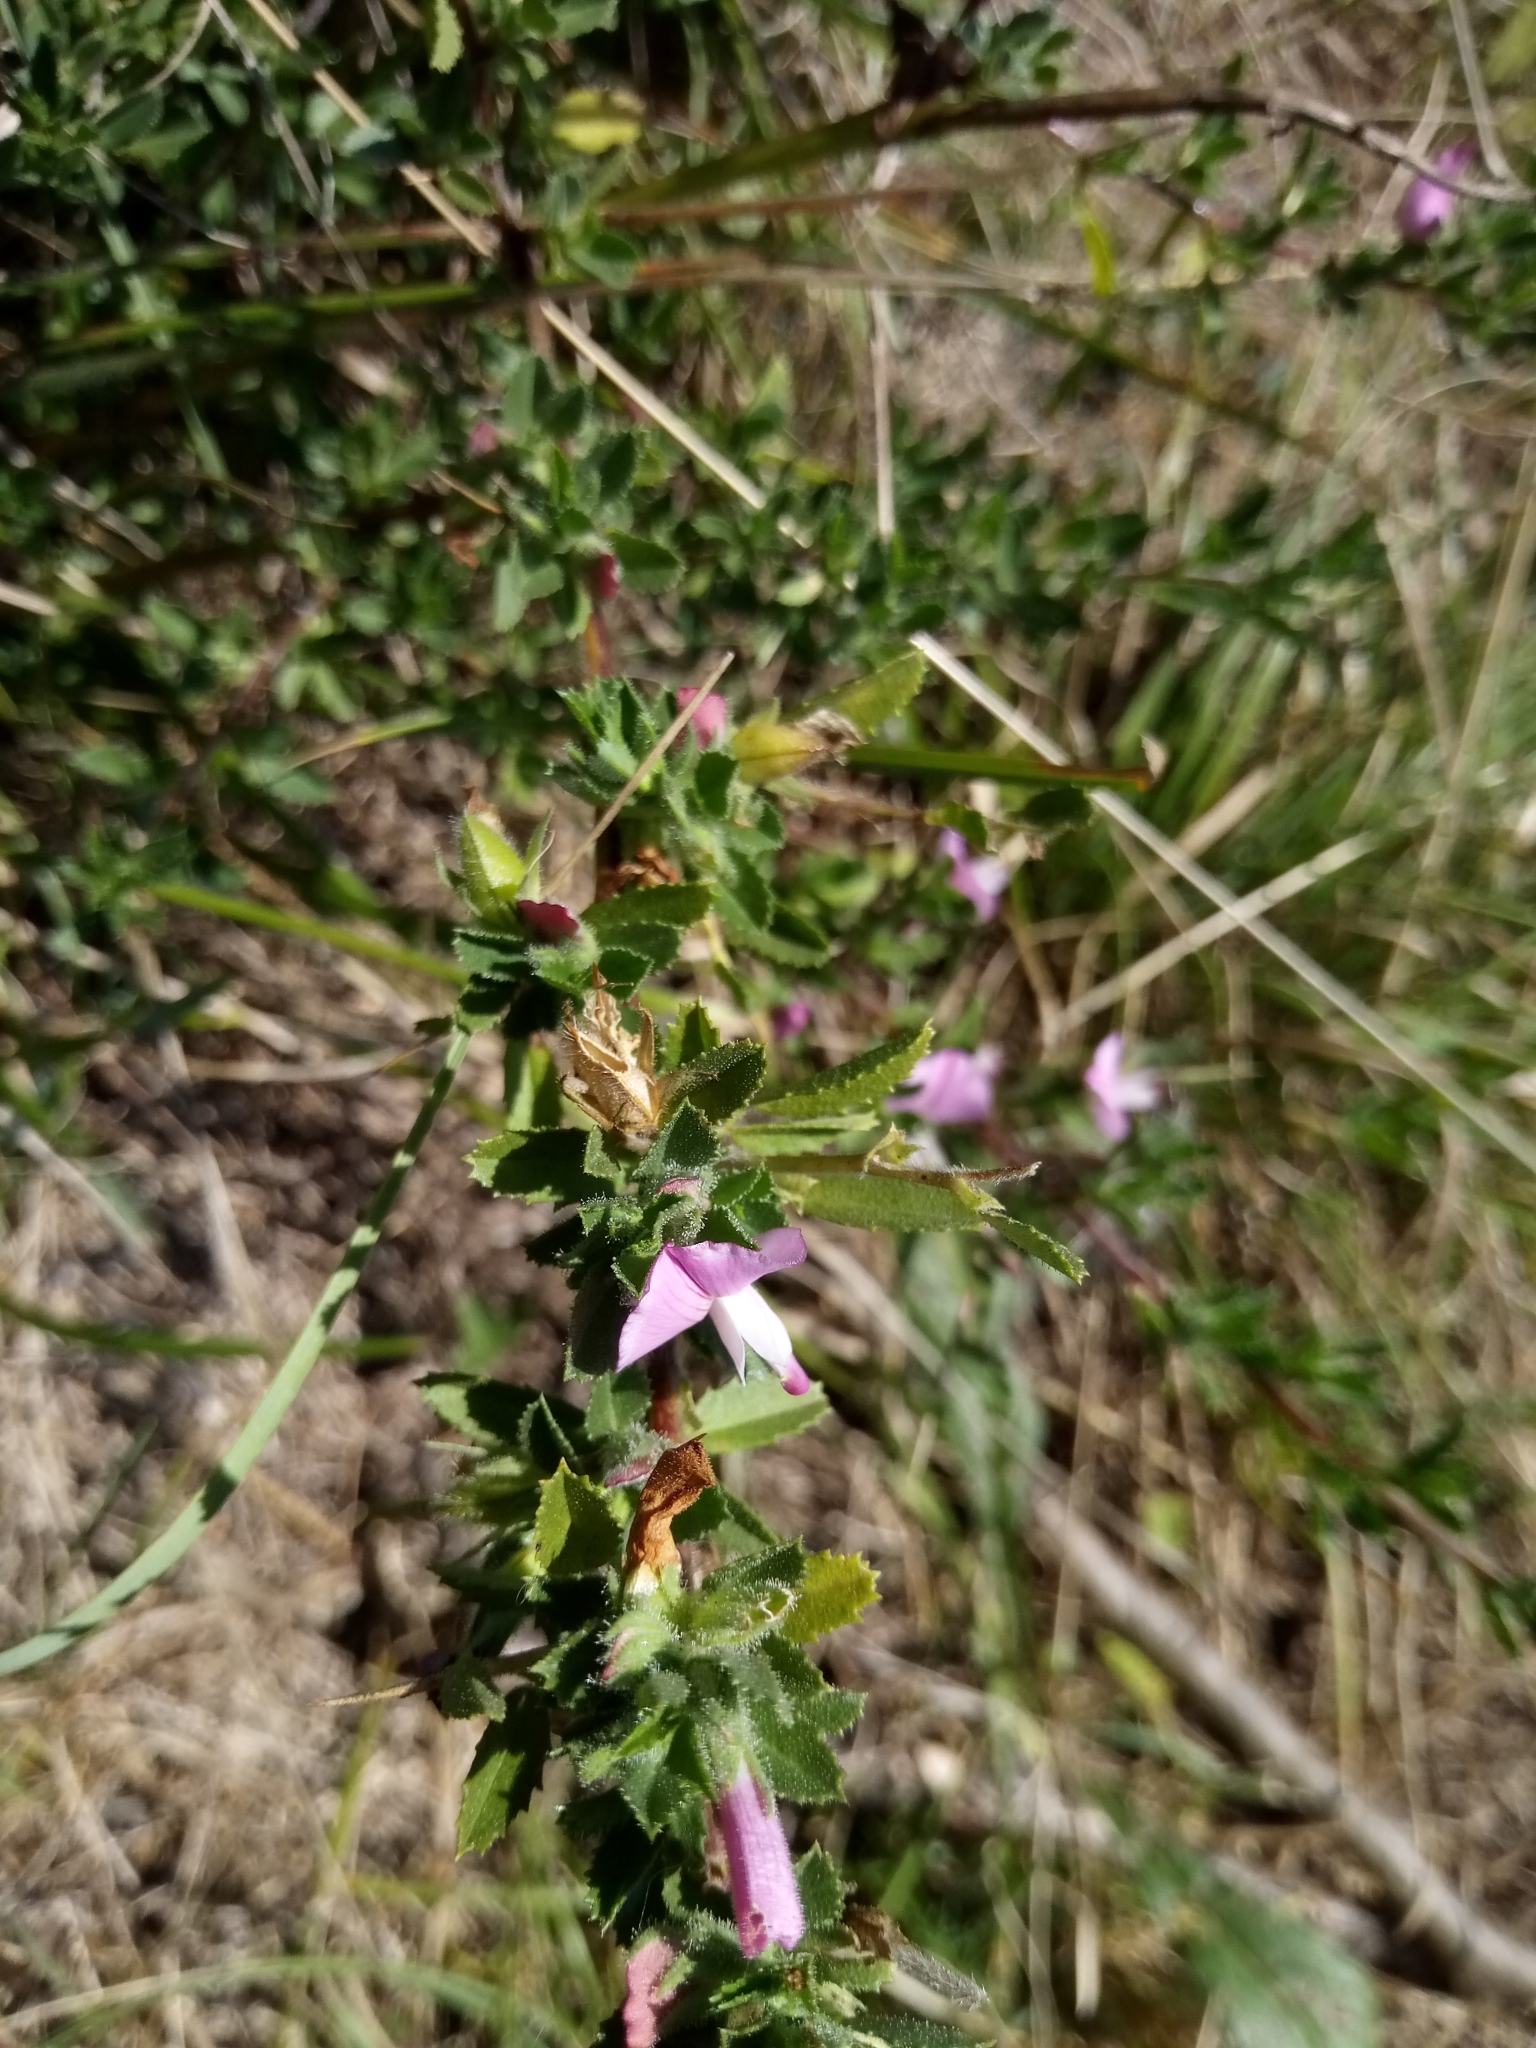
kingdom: Plantae
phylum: Tracheophyta
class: Magnoliopsida
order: Fabales
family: Fabaceae
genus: Ononis
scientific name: Ononis spinosa
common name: Spiny restharrow
